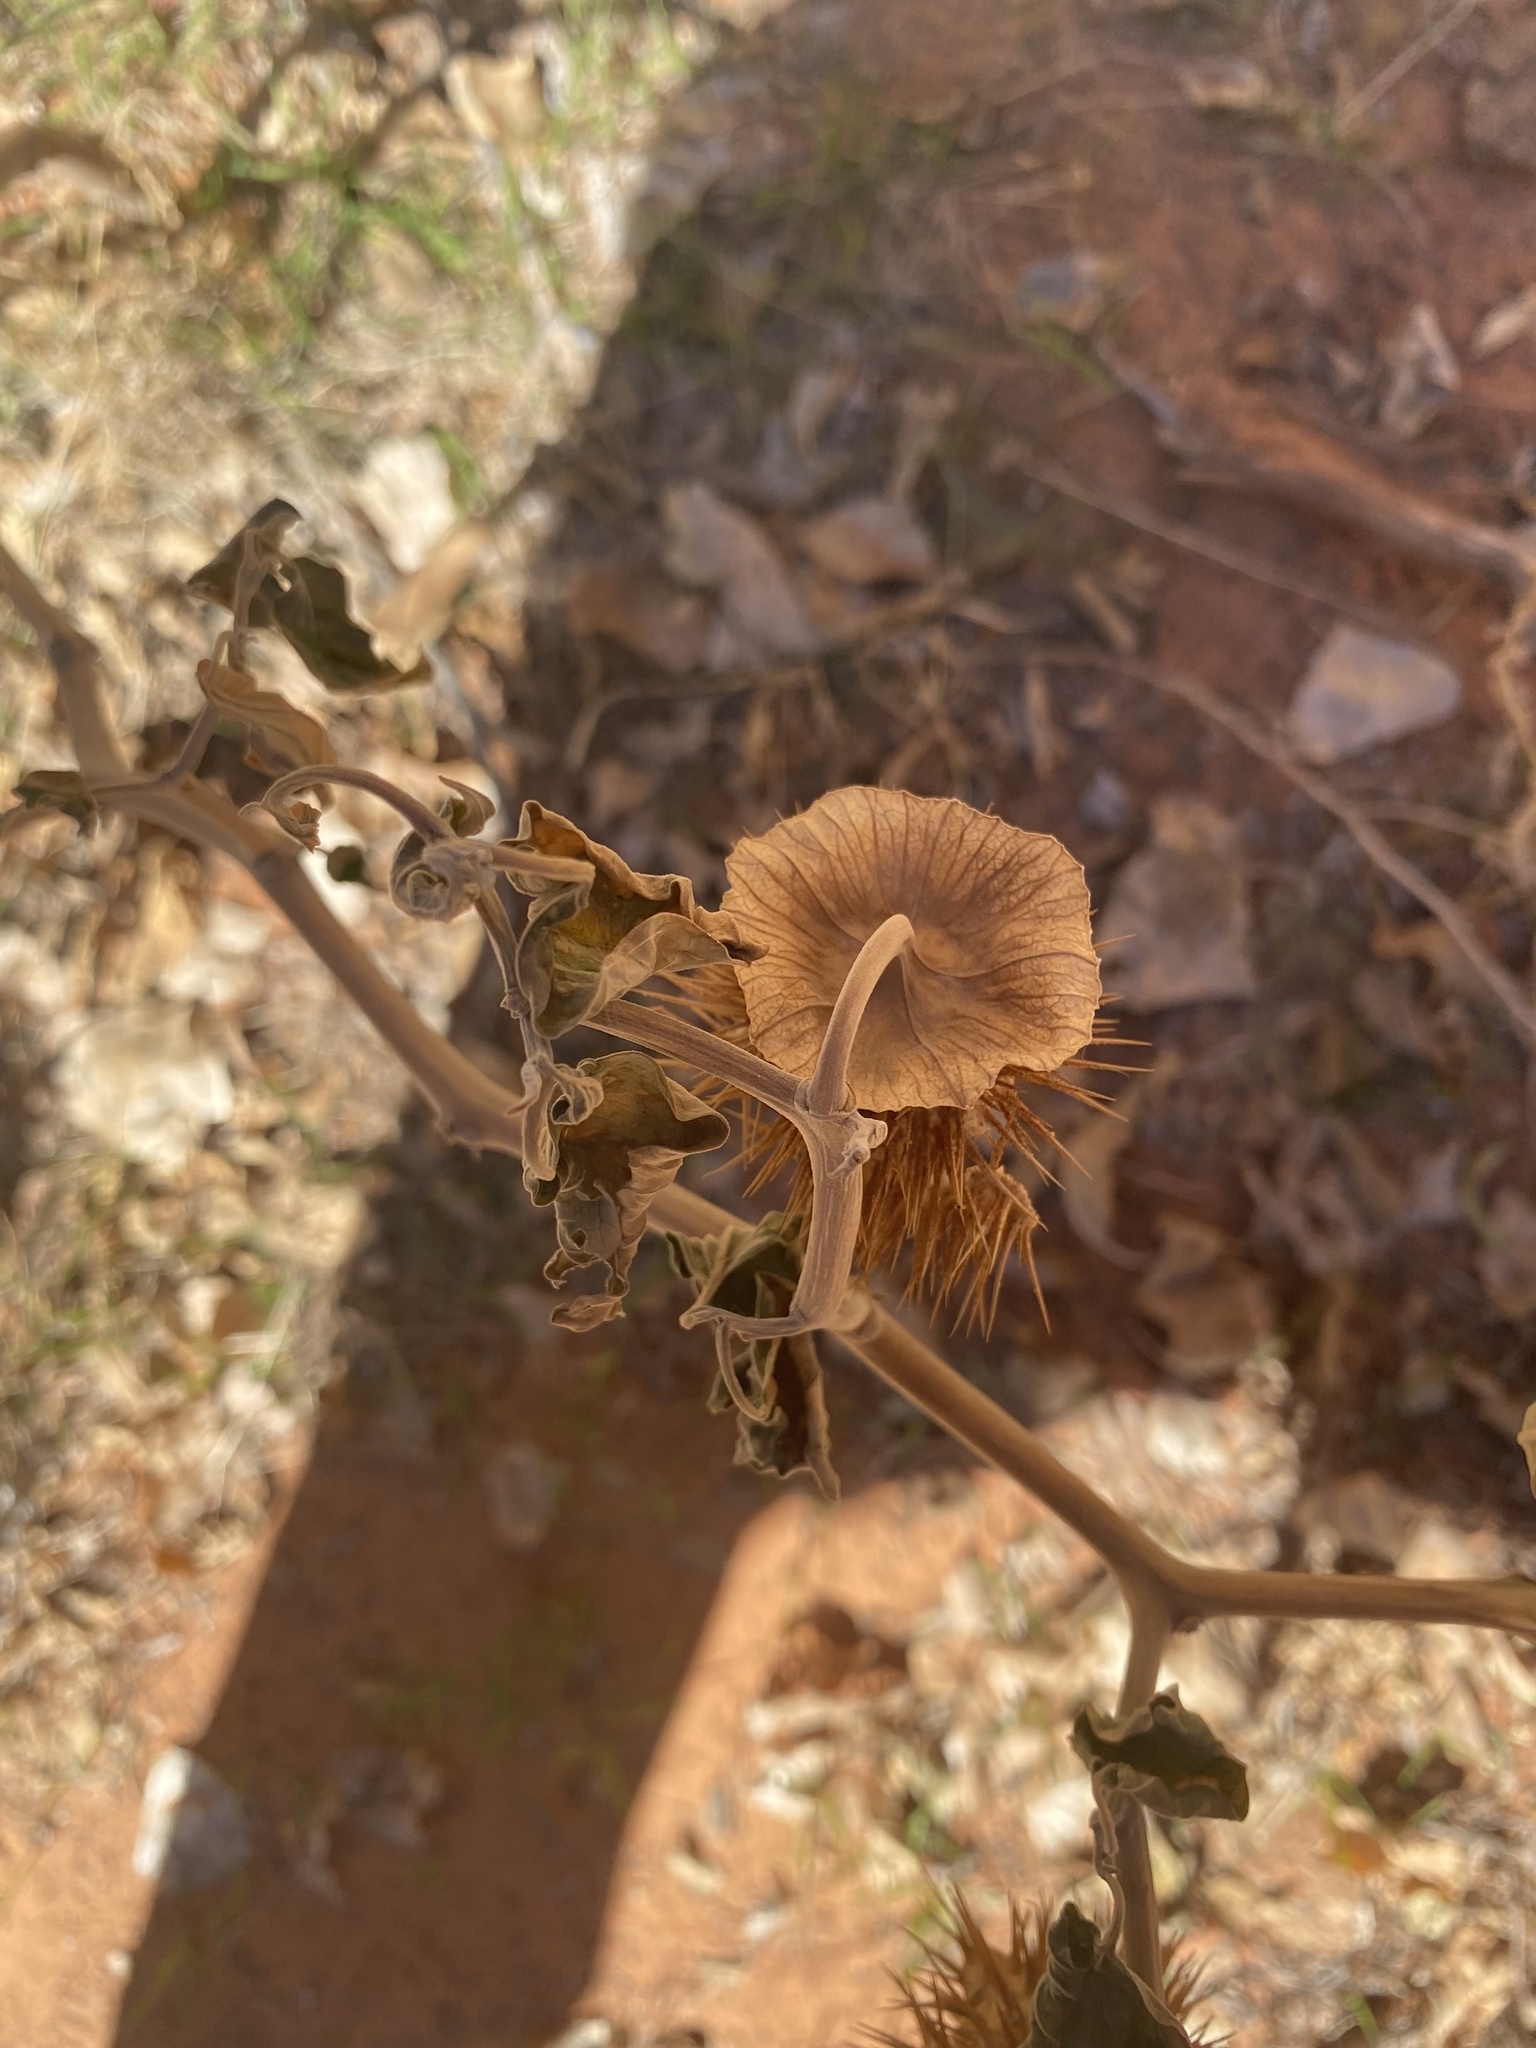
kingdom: Plantae
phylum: Tracheophyta
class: Magnoliopsida
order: Solanales
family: Solanaceae
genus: Datura
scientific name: Datura wrightii
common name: Sacred thorn-apple
